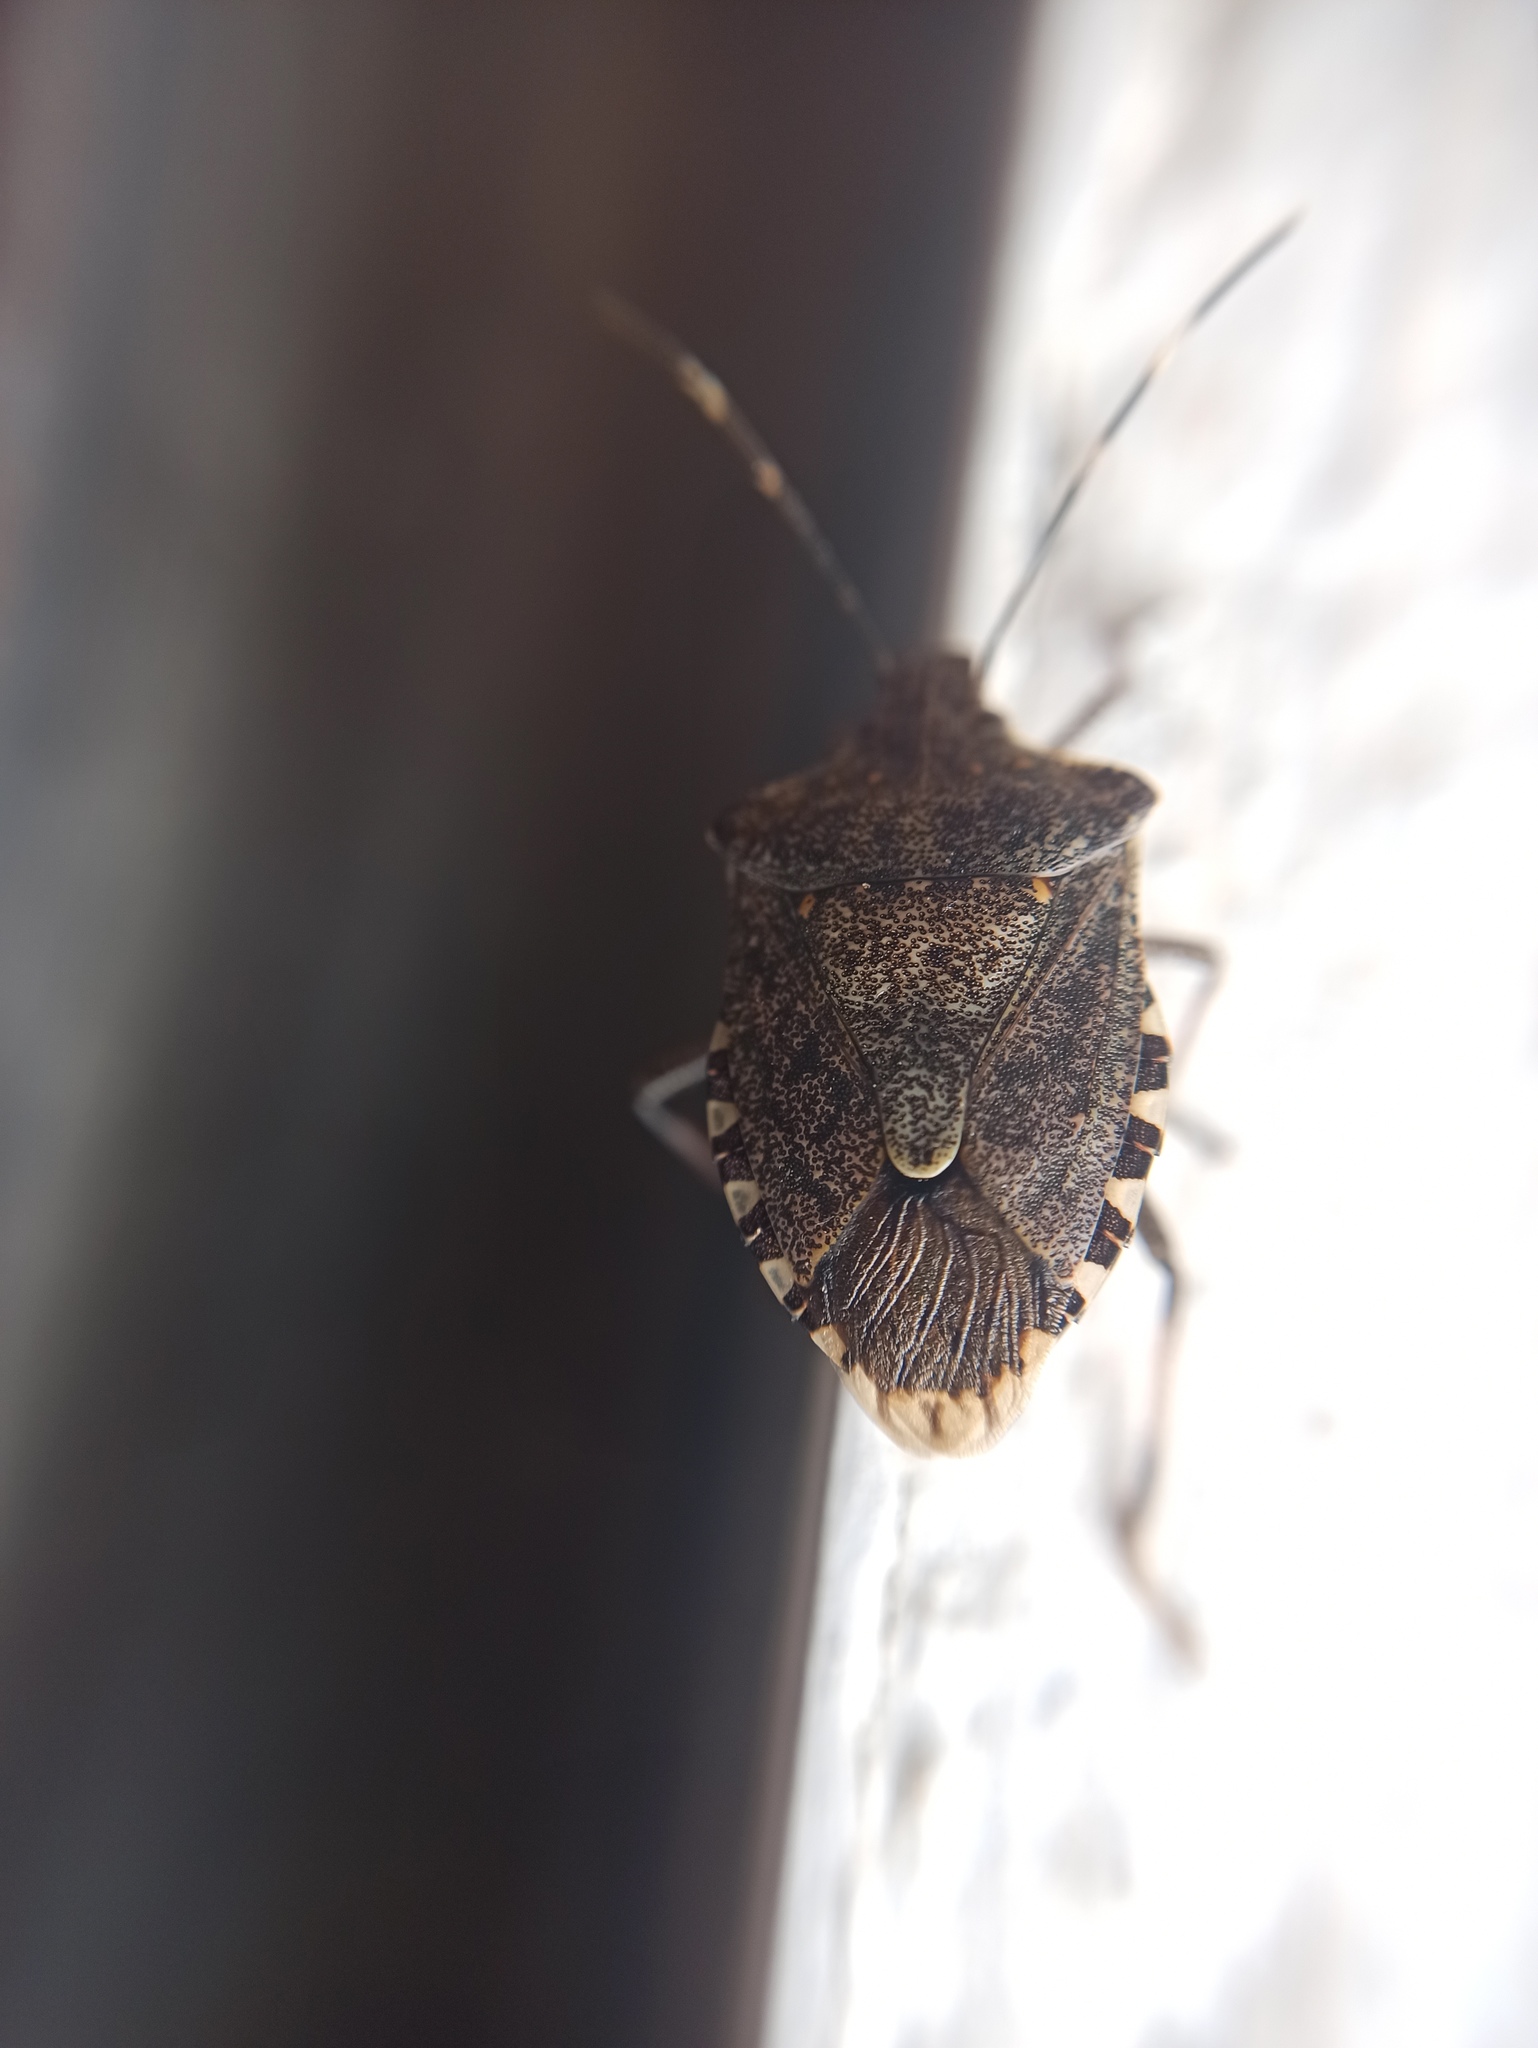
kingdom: Animalia
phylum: Arthropoda
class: Insecta
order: Hemiptera
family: Pentatomidae
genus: Halyomorpha
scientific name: Halyomorpha halys
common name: Brown marmorated stink bug
